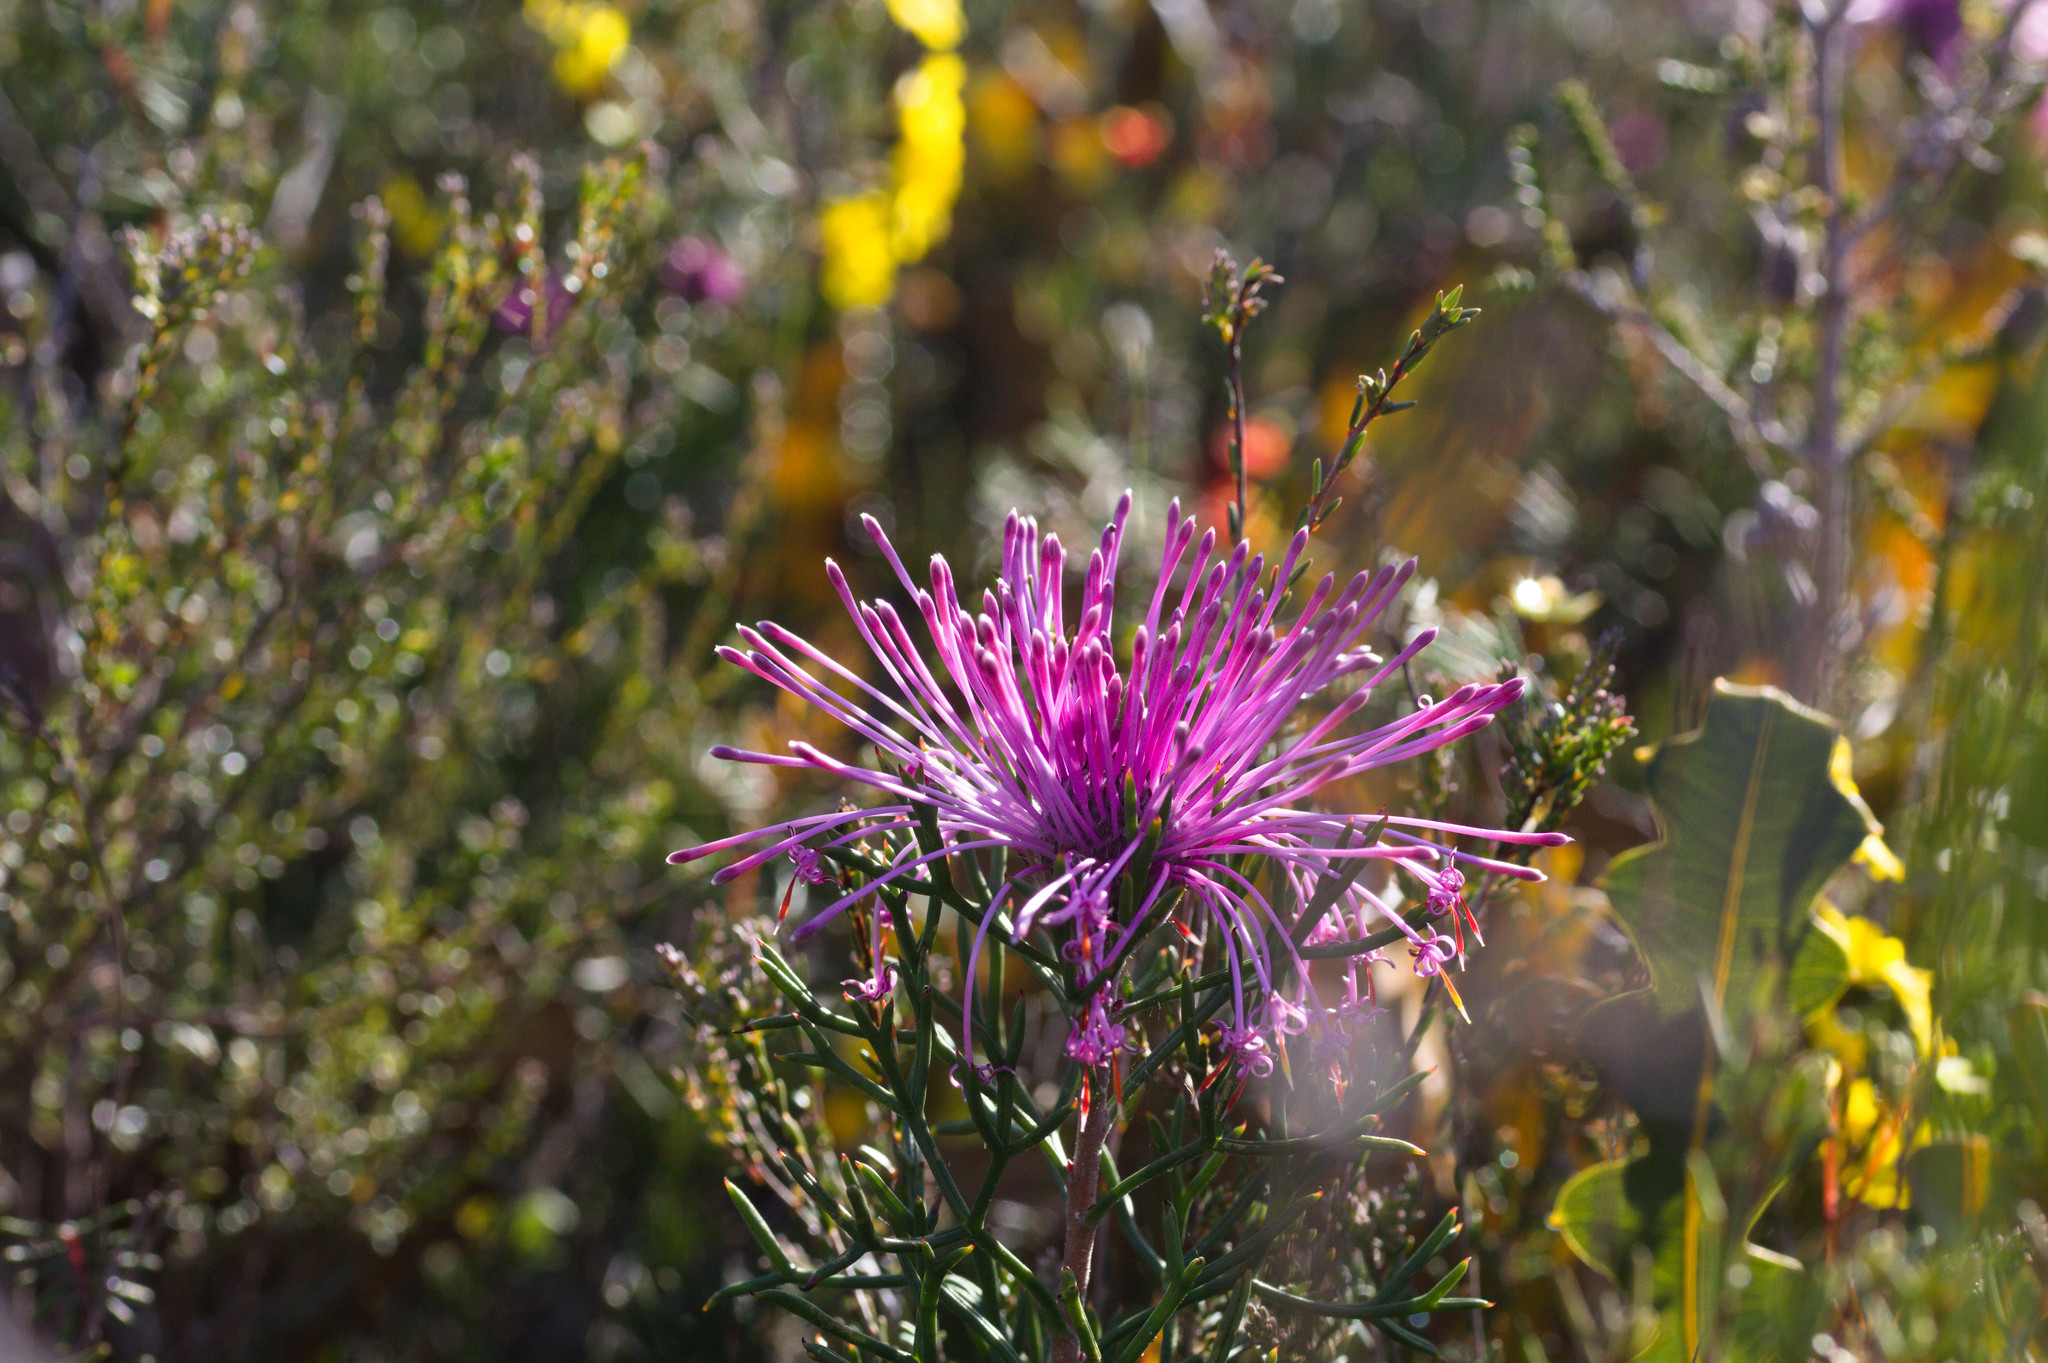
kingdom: Plantae
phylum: Tracheophyta
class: Magnoliopsida
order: Proteales
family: Proteaceae
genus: Isopogon
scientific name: Isopogon formosus
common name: Rose-coneflower
